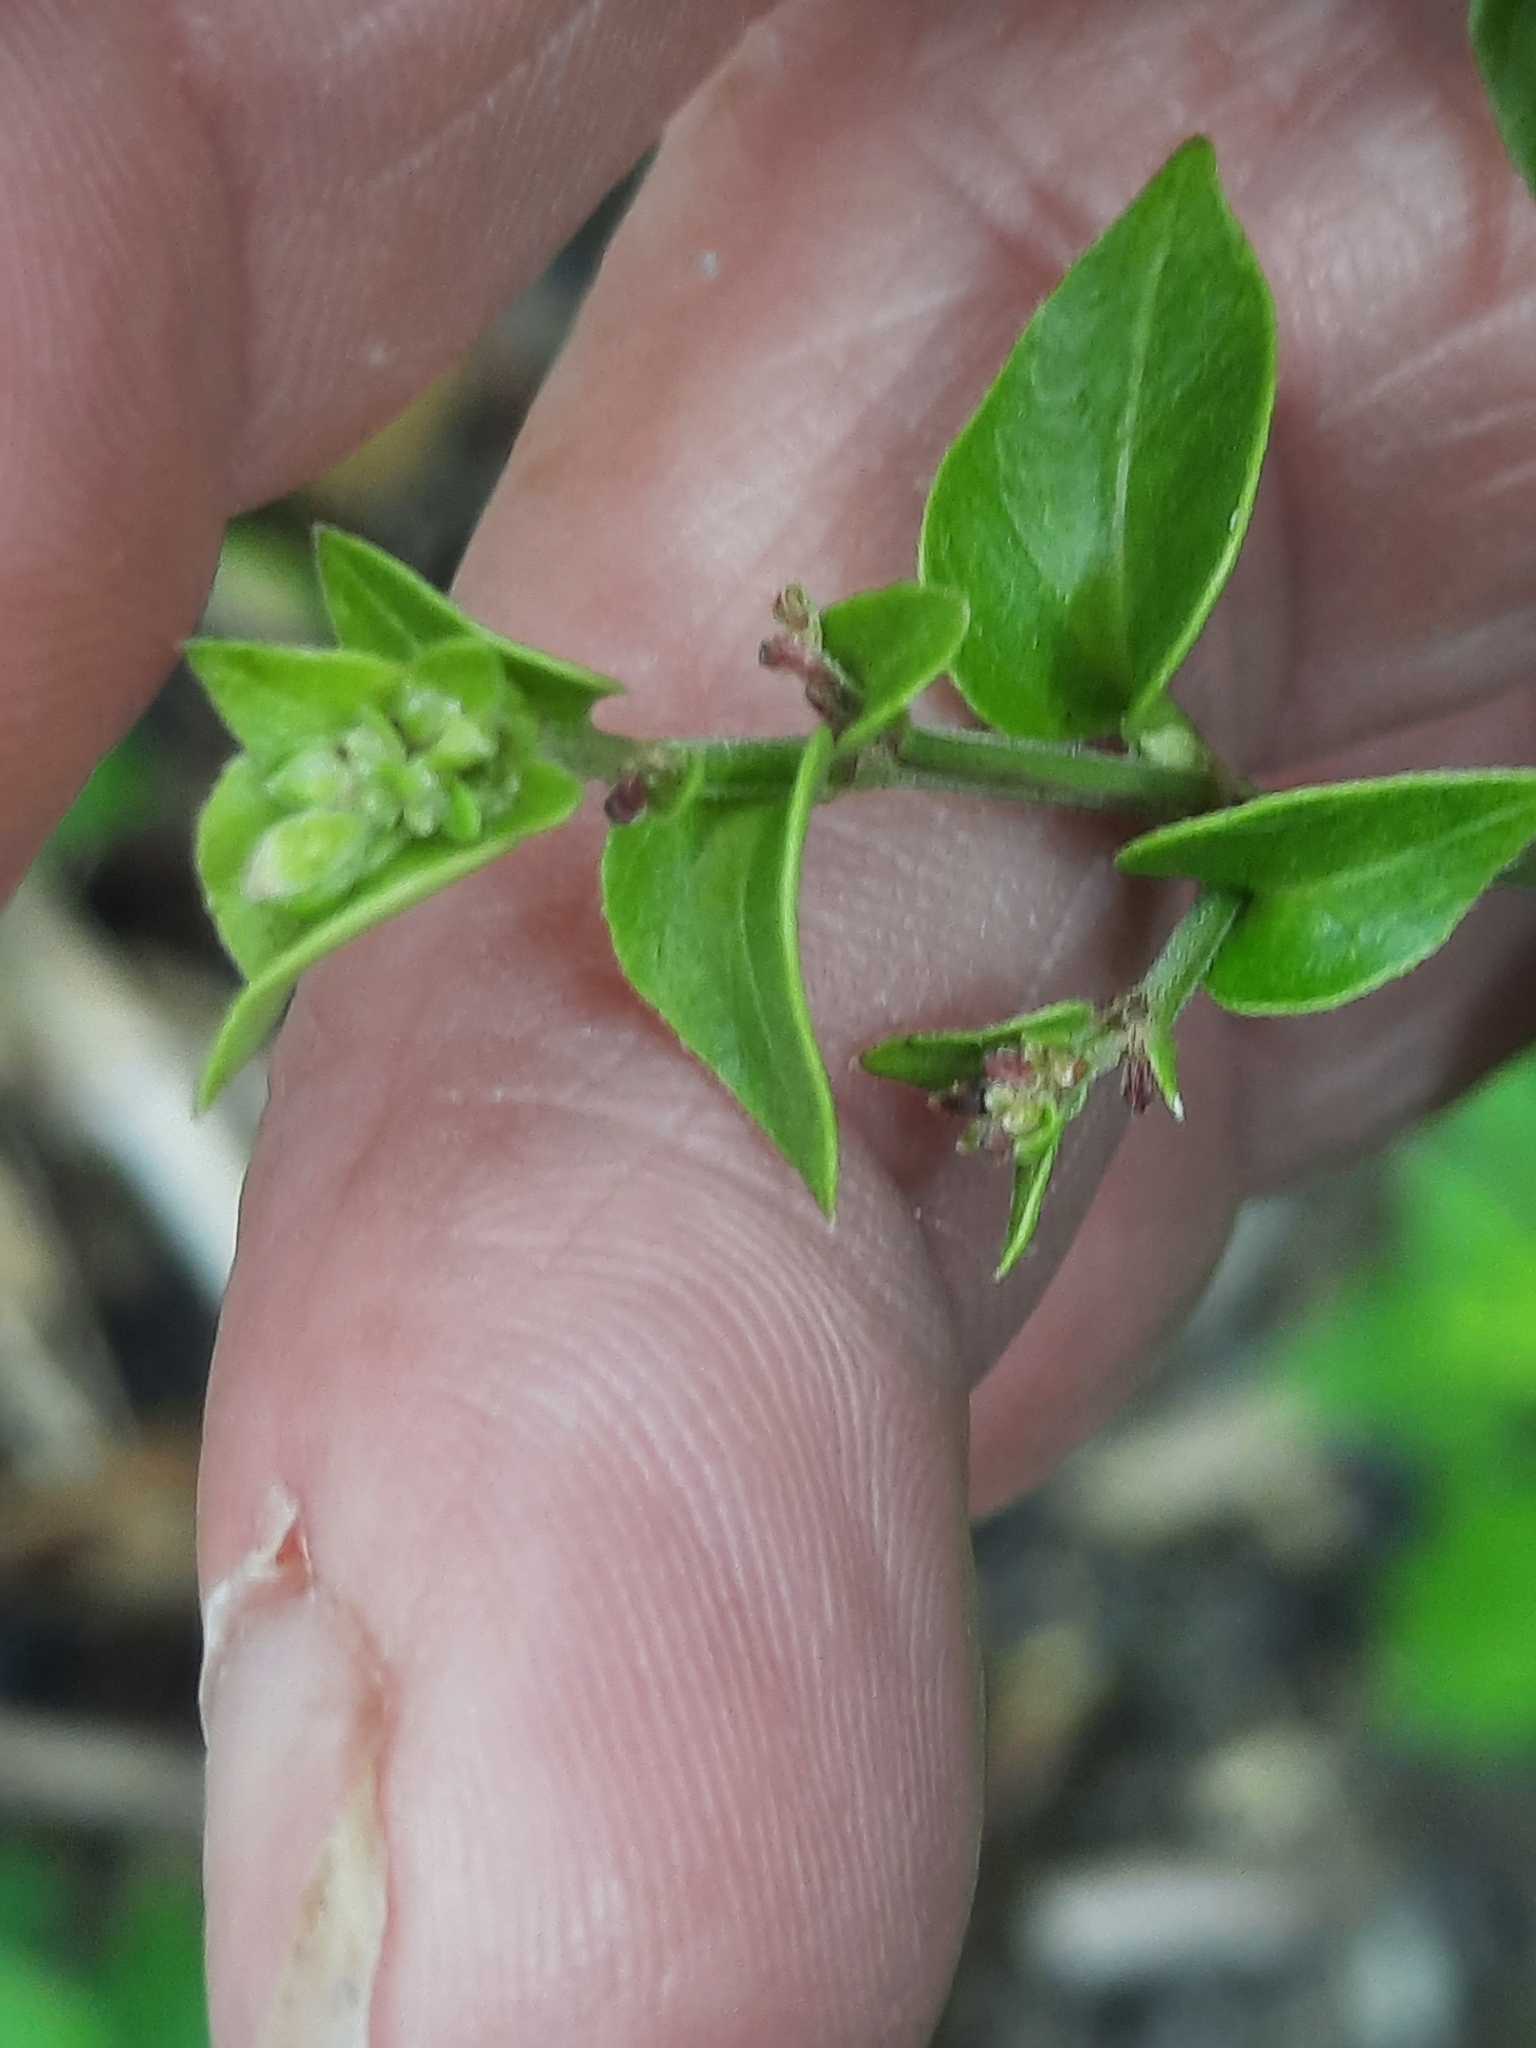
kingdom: Plantae
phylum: Tracheophyta
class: Magnoliopsida
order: Caryophyllales
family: Nyctaginaceae
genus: Mirabilis
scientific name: Mirabilis nyctaginea
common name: Umbrella wort
